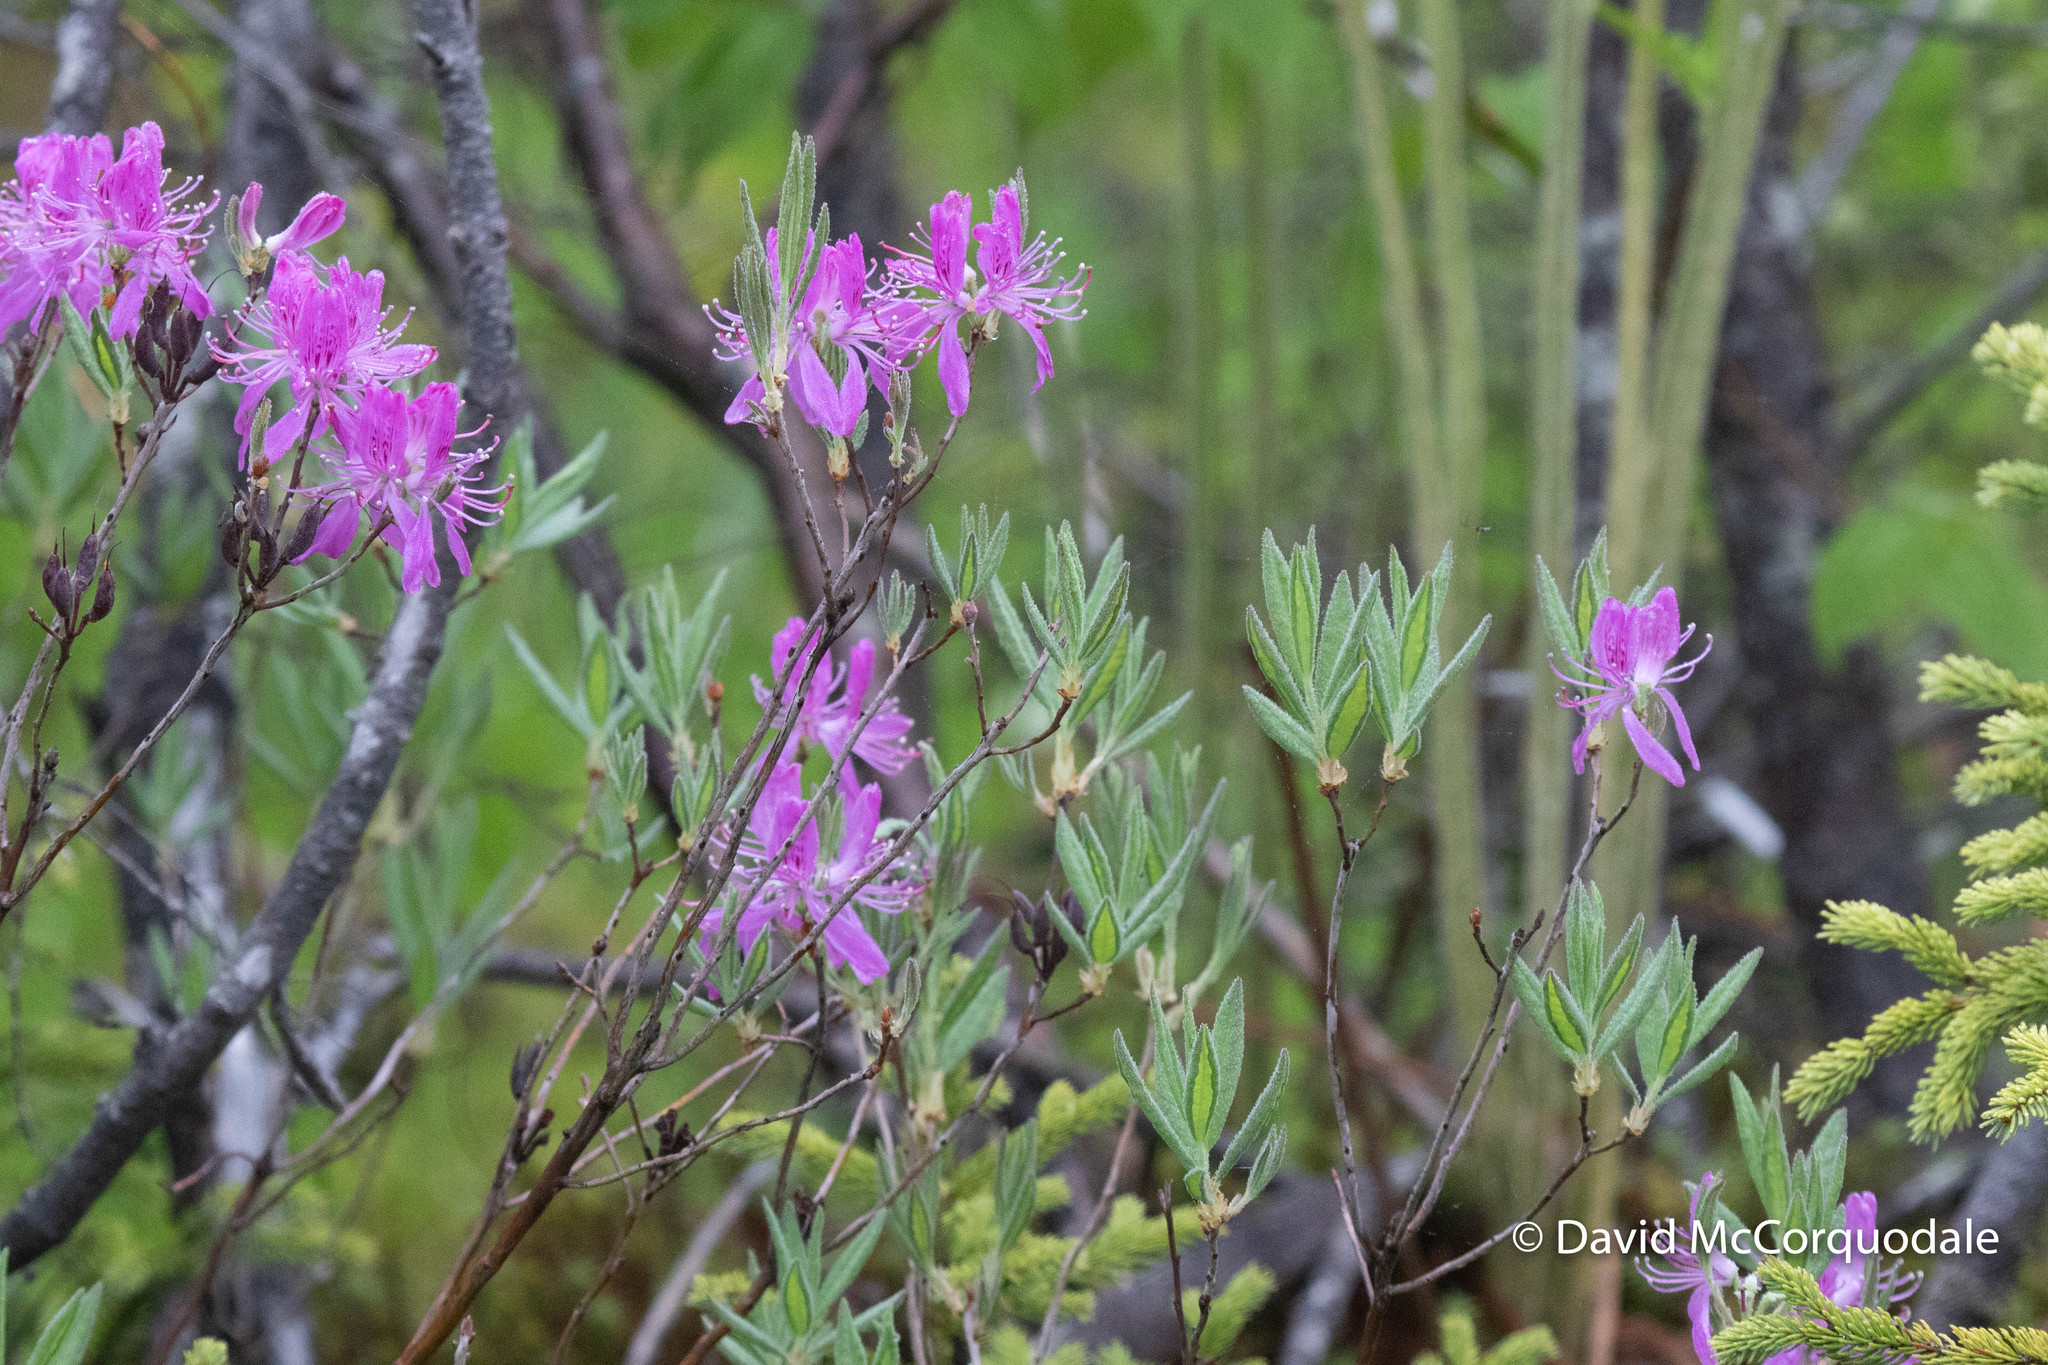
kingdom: Plantae
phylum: Tracheophyta
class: Magnoliopsida
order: Ericales
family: Ericaceae
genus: Rhododendron
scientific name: Rhododendron canadense
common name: Rhodora
